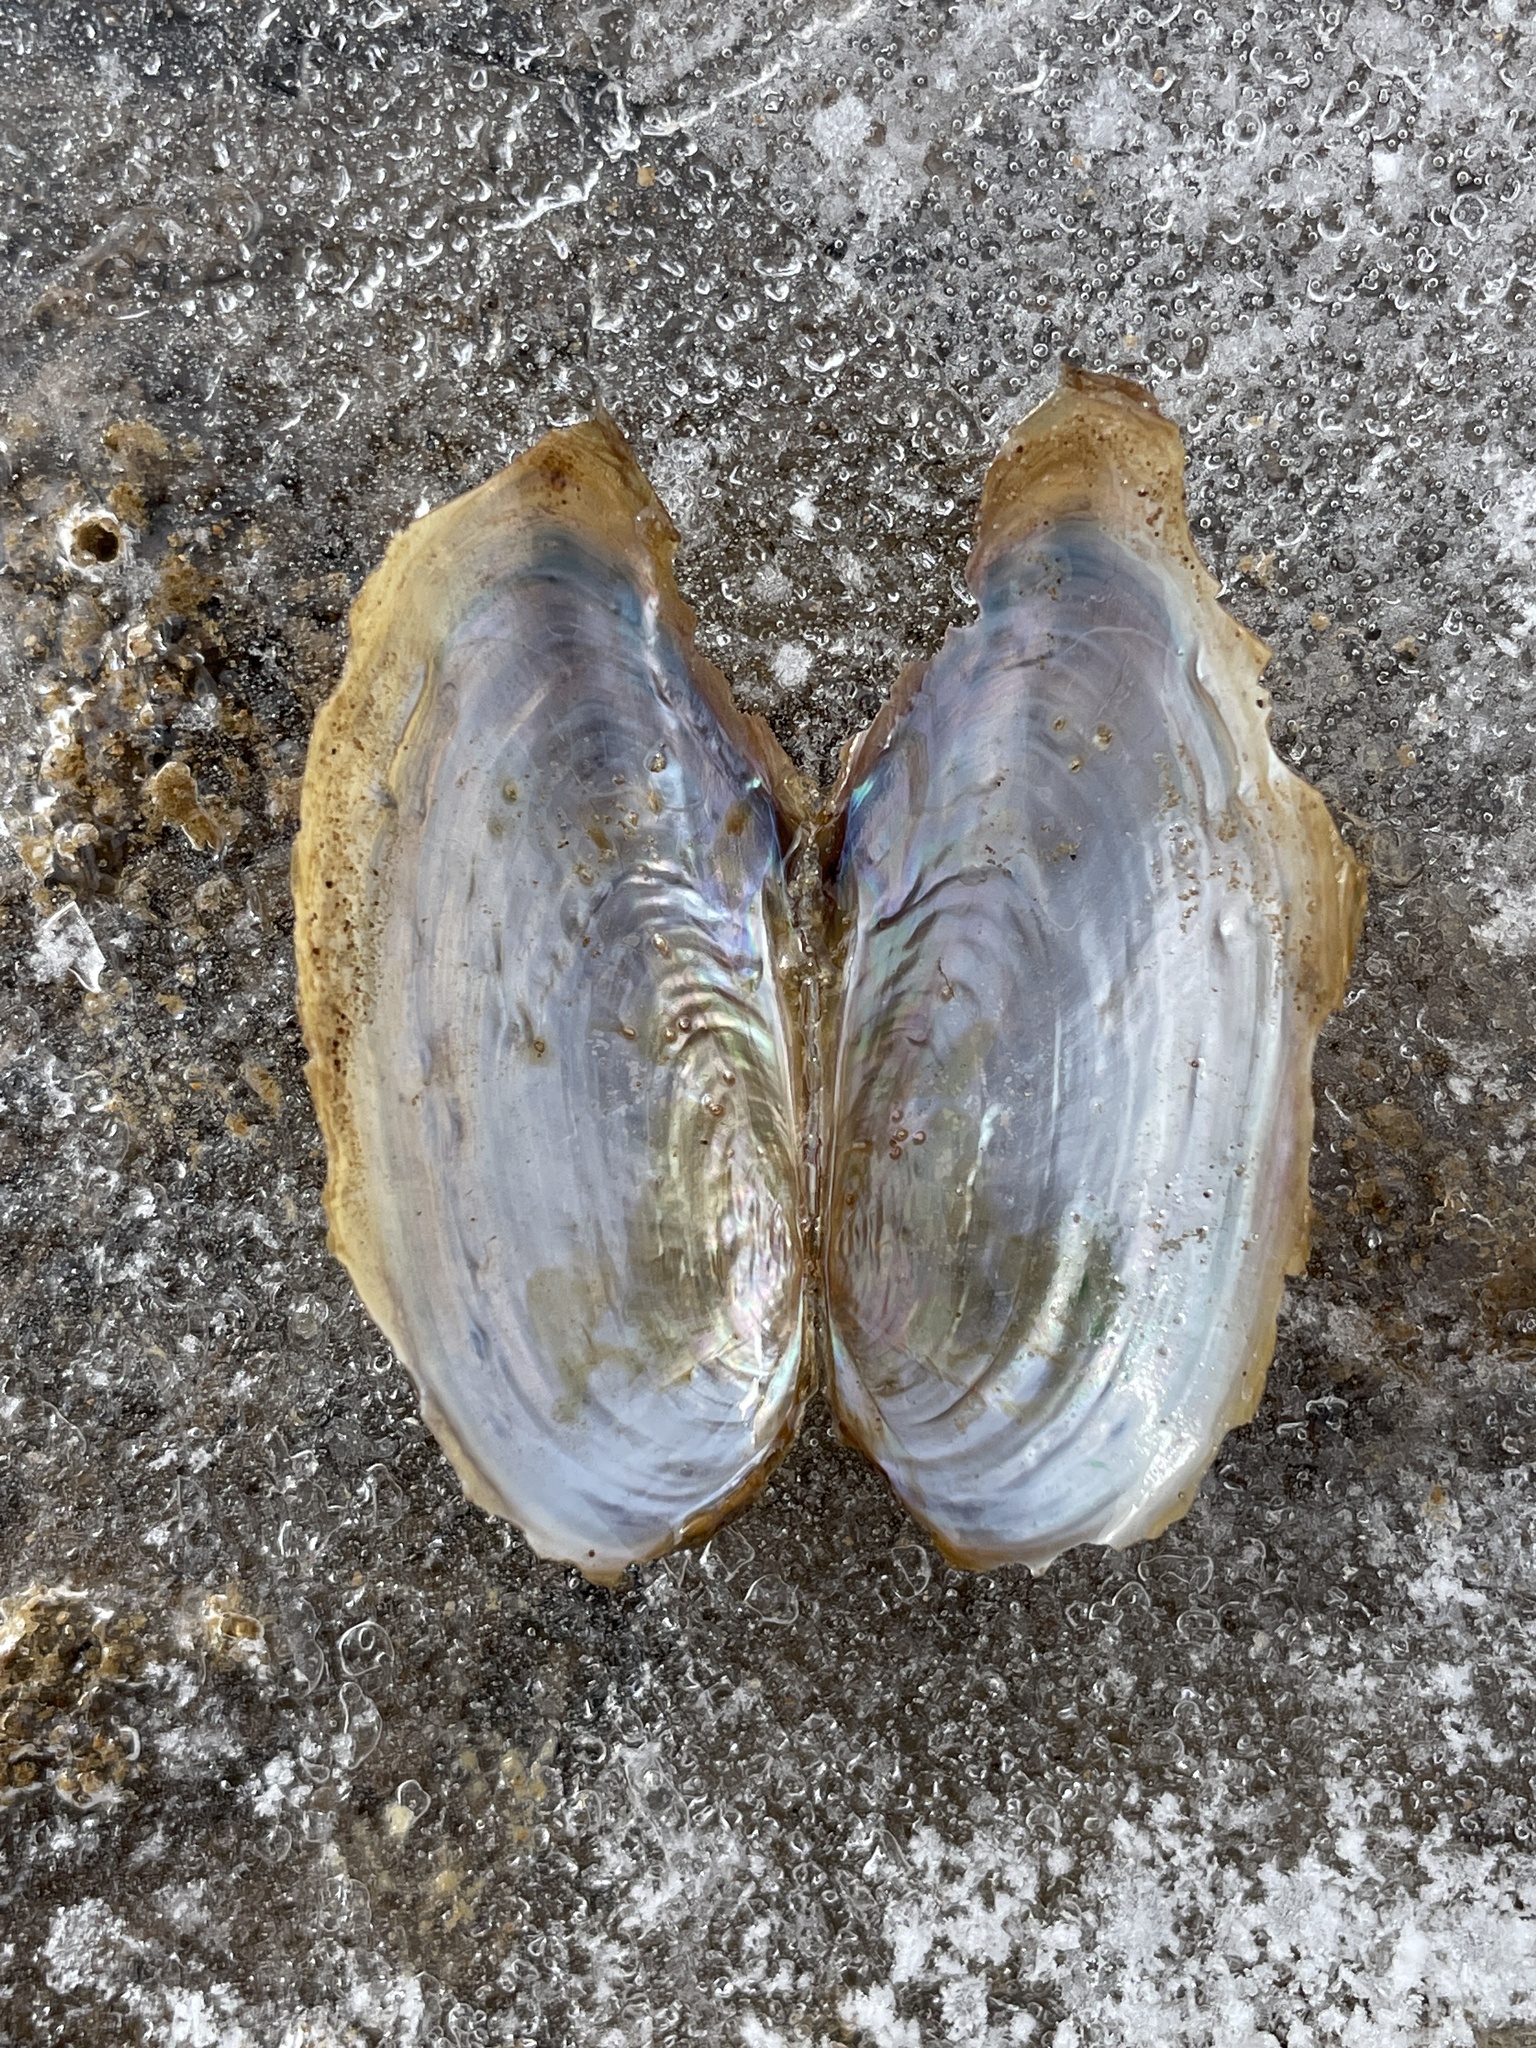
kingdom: Animalia
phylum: Mollusca
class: Bivalvia
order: Unionida
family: Unionidae
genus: Utterbackia
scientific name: Utterbackia imbecillis
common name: Paper pondshell
